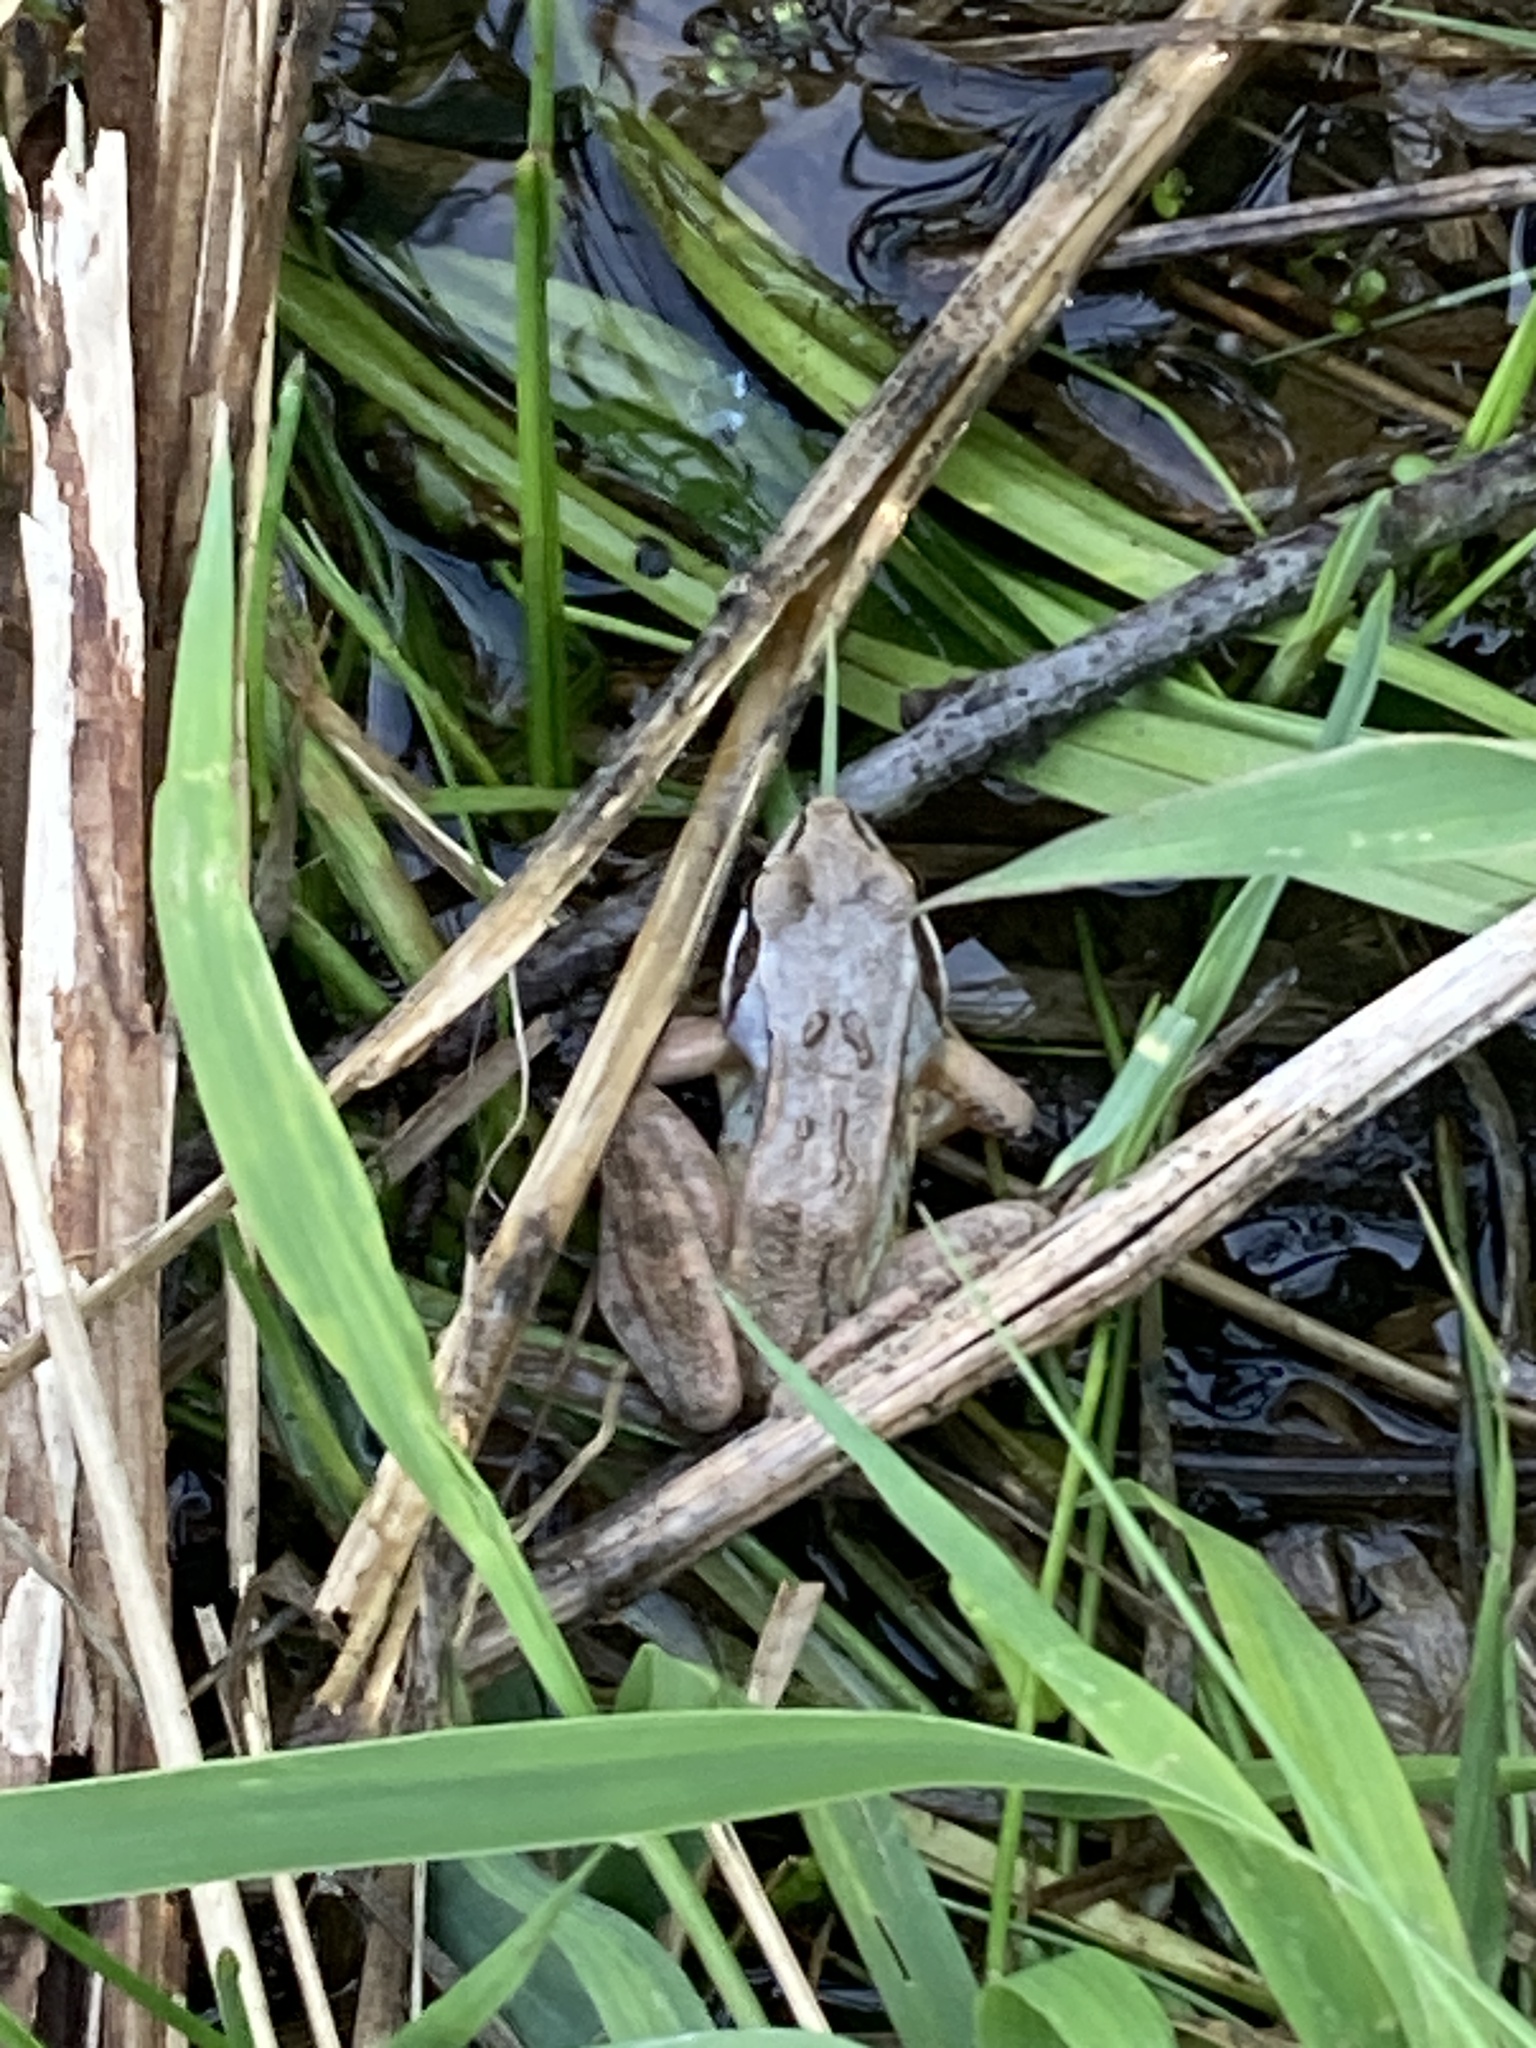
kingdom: Animalia
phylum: Chordata
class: Amphibia
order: Anura
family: Ranidae
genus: Rana
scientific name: Rana arvalis
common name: Moor frog
